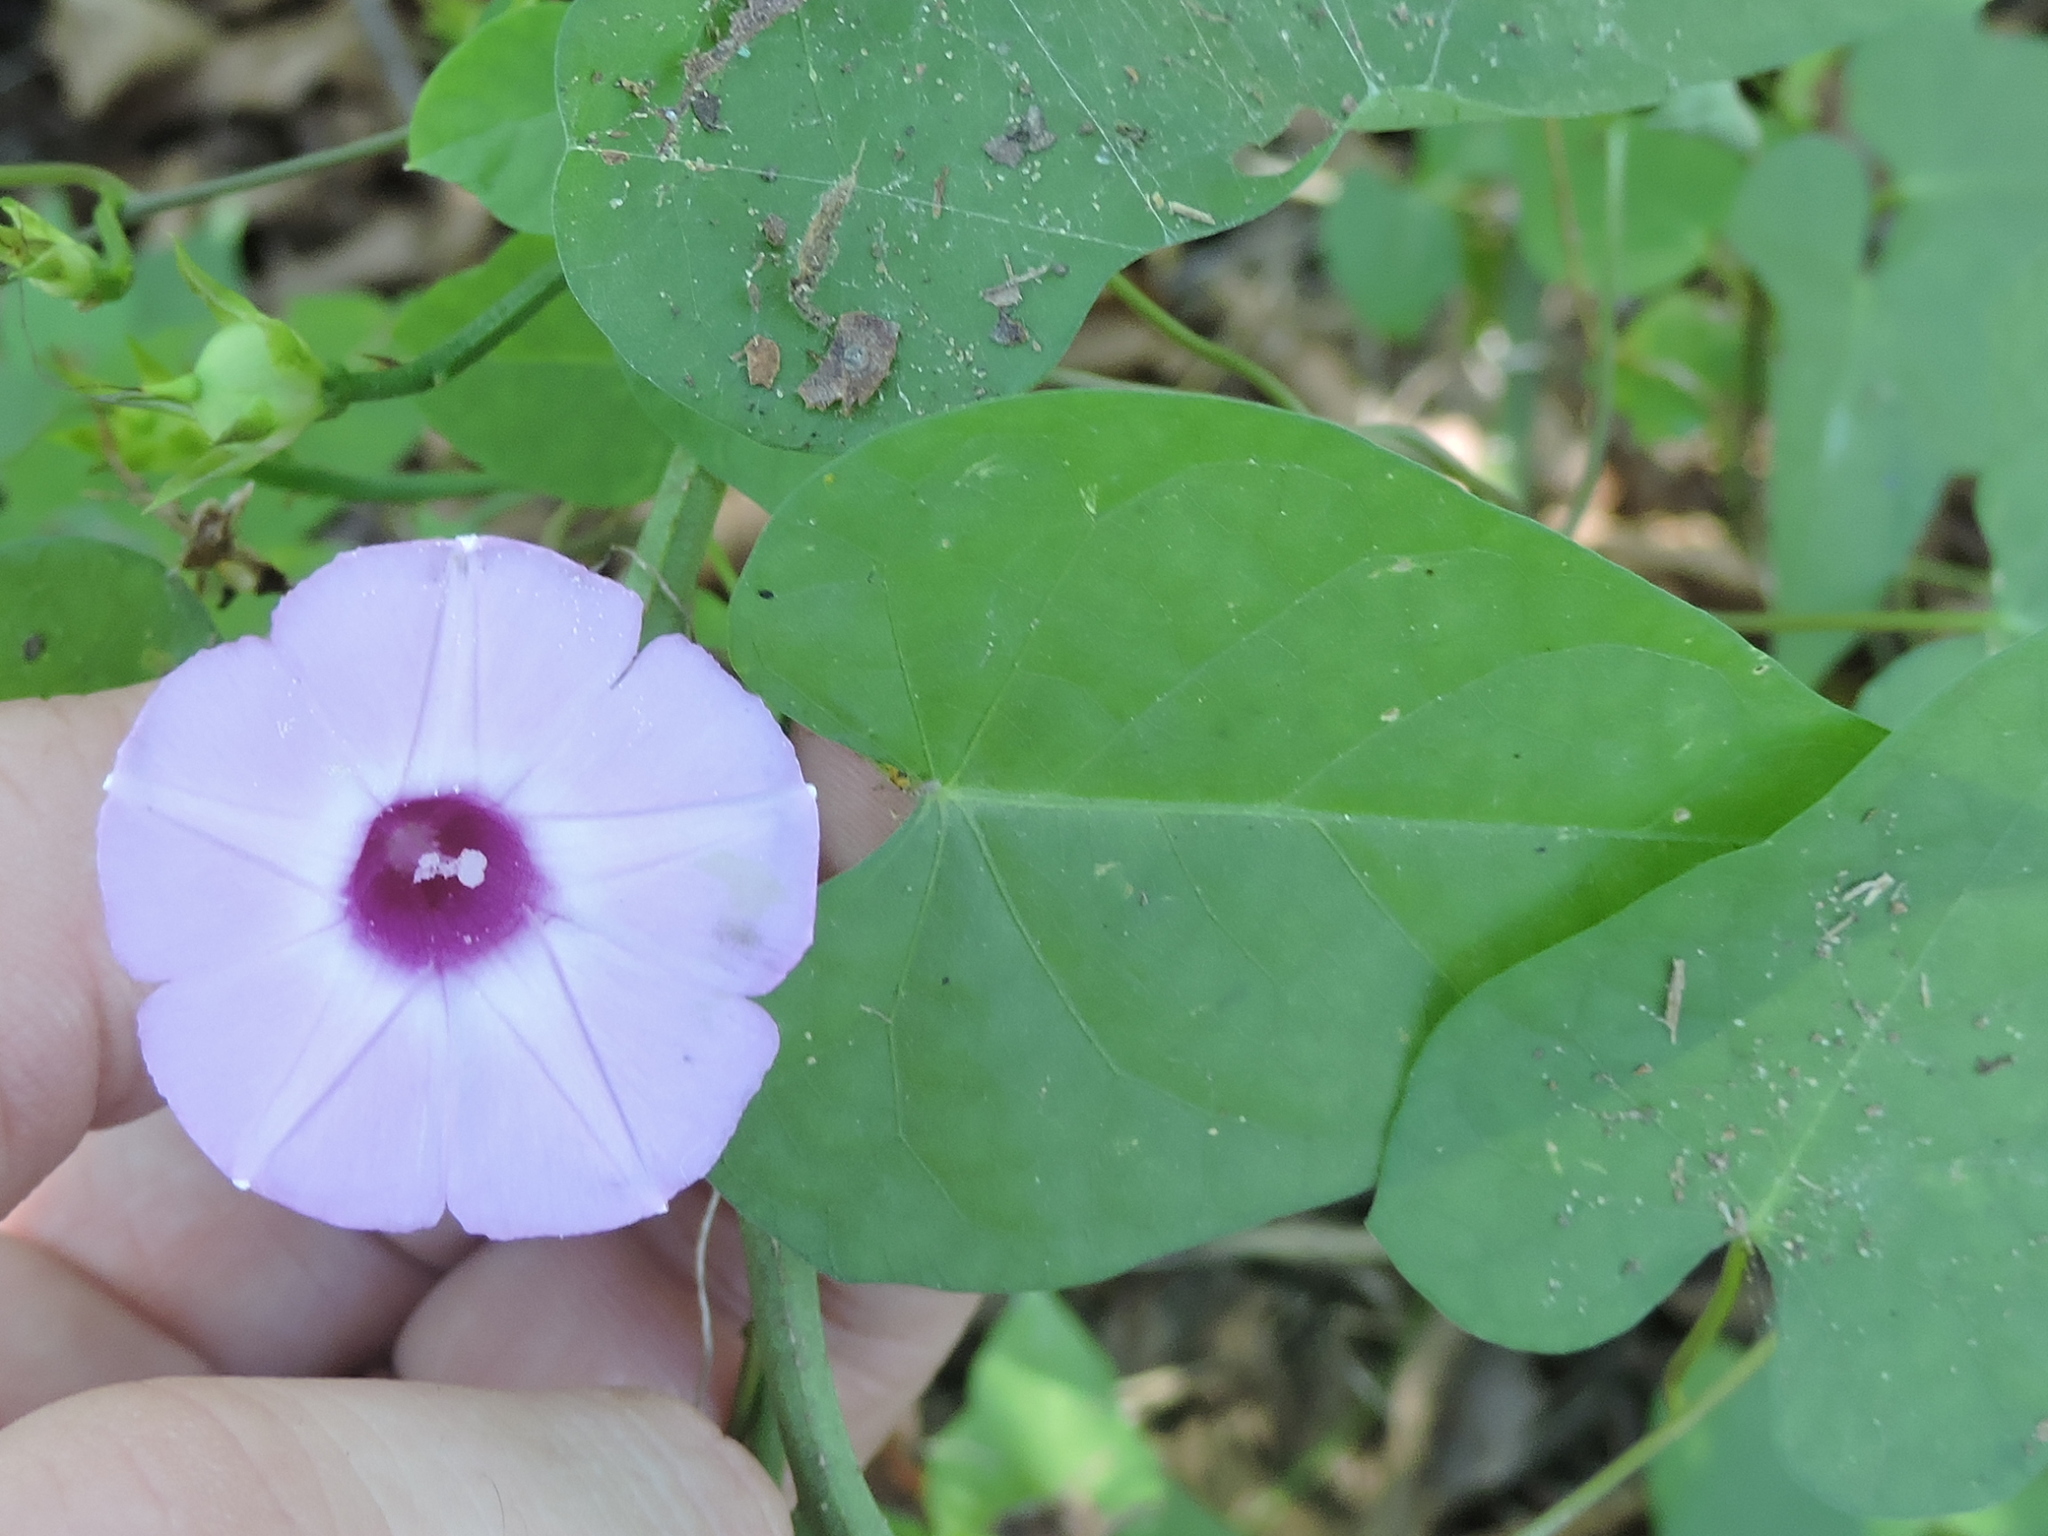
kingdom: Plantae
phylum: Tracheophyta
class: Magnoliopsida
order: Solanales
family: Convolvulaceae
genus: Ipomoea
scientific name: Ipomoea cordatotriloba
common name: Cotton morning glory
